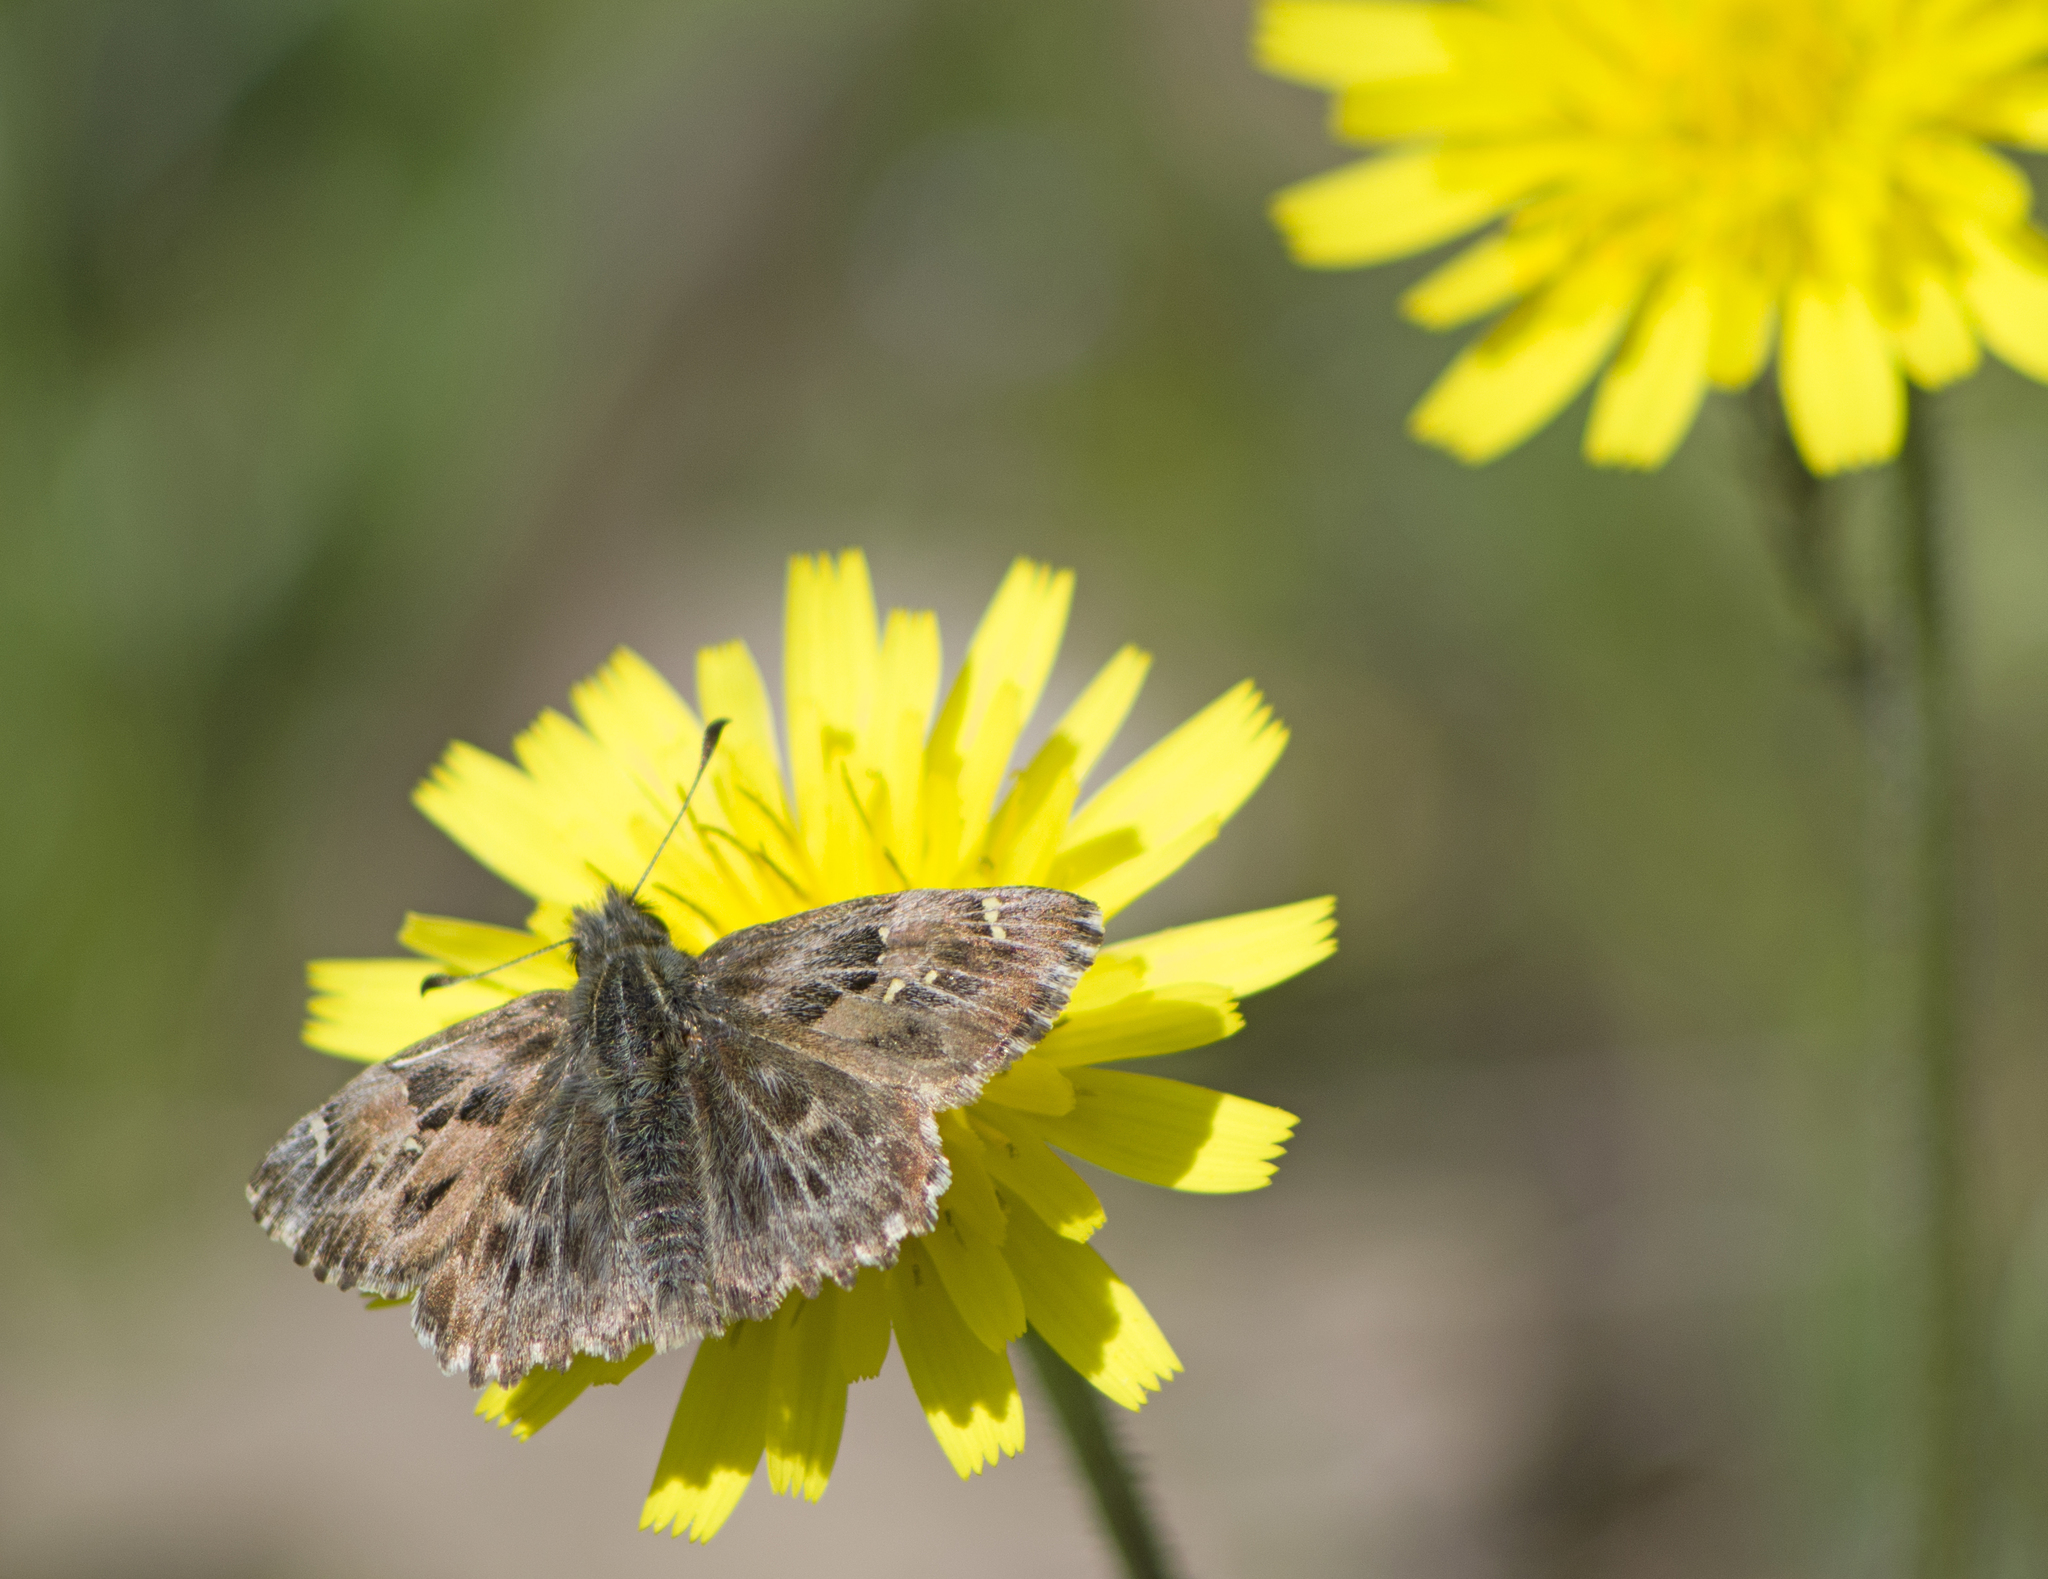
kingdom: Animalia
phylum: Arthropoda
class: Insecta
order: Lepidoptera
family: Hesperiidae
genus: Carcharodus
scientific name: Carcharodus alceae
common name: Mallow skipper
